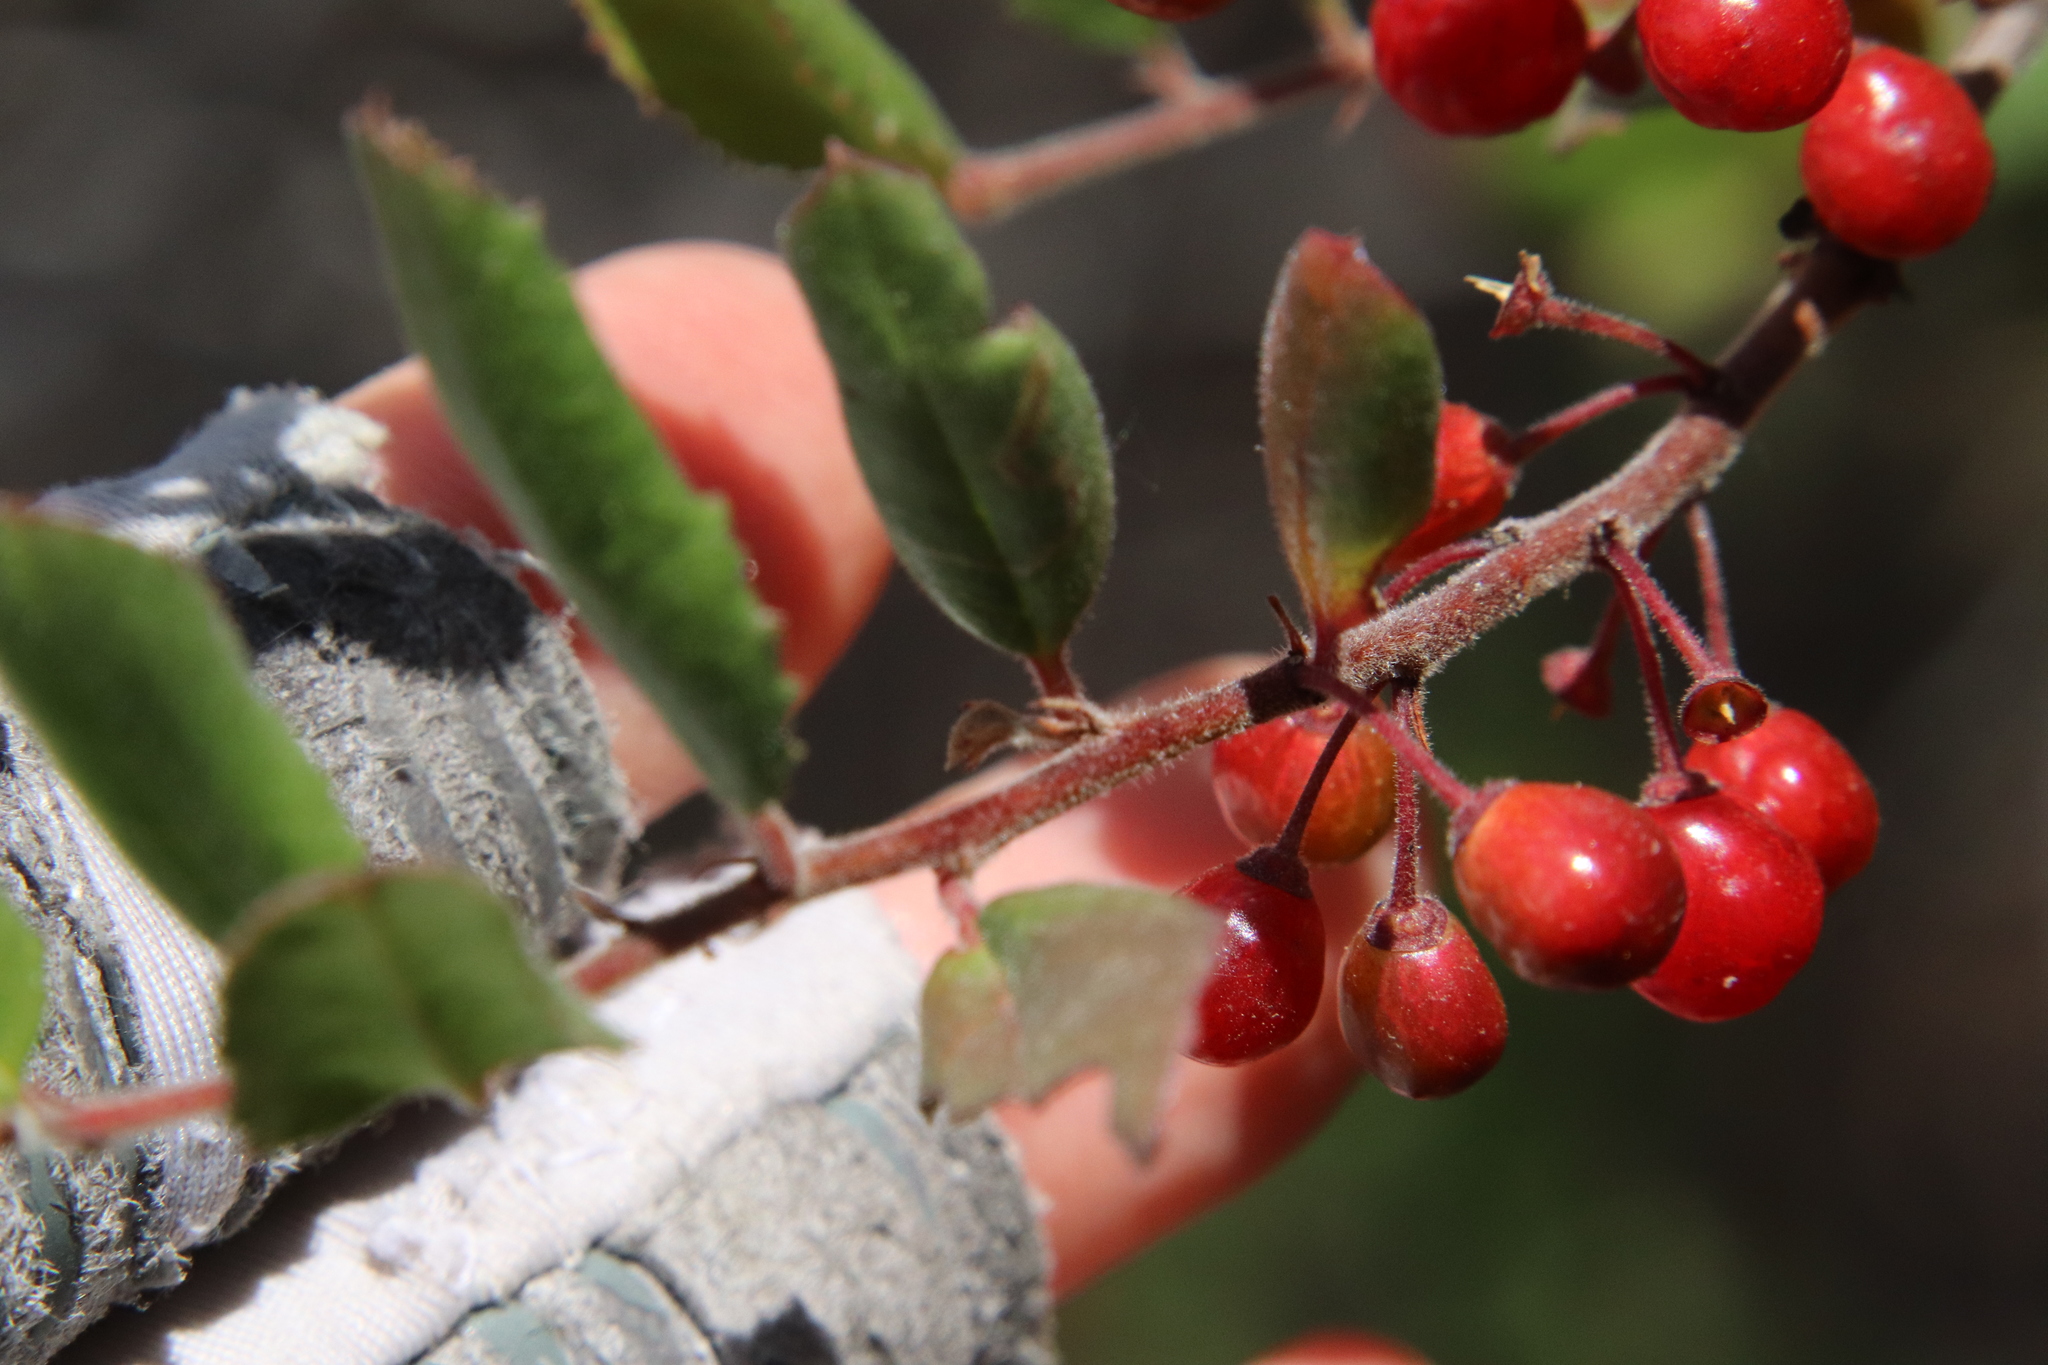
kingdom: Plantae
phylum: Tracheophyta
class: Magnoliopsida
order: Rosales
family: Rhamnaceae
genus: Endotropis
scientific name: Endotropis crocea
